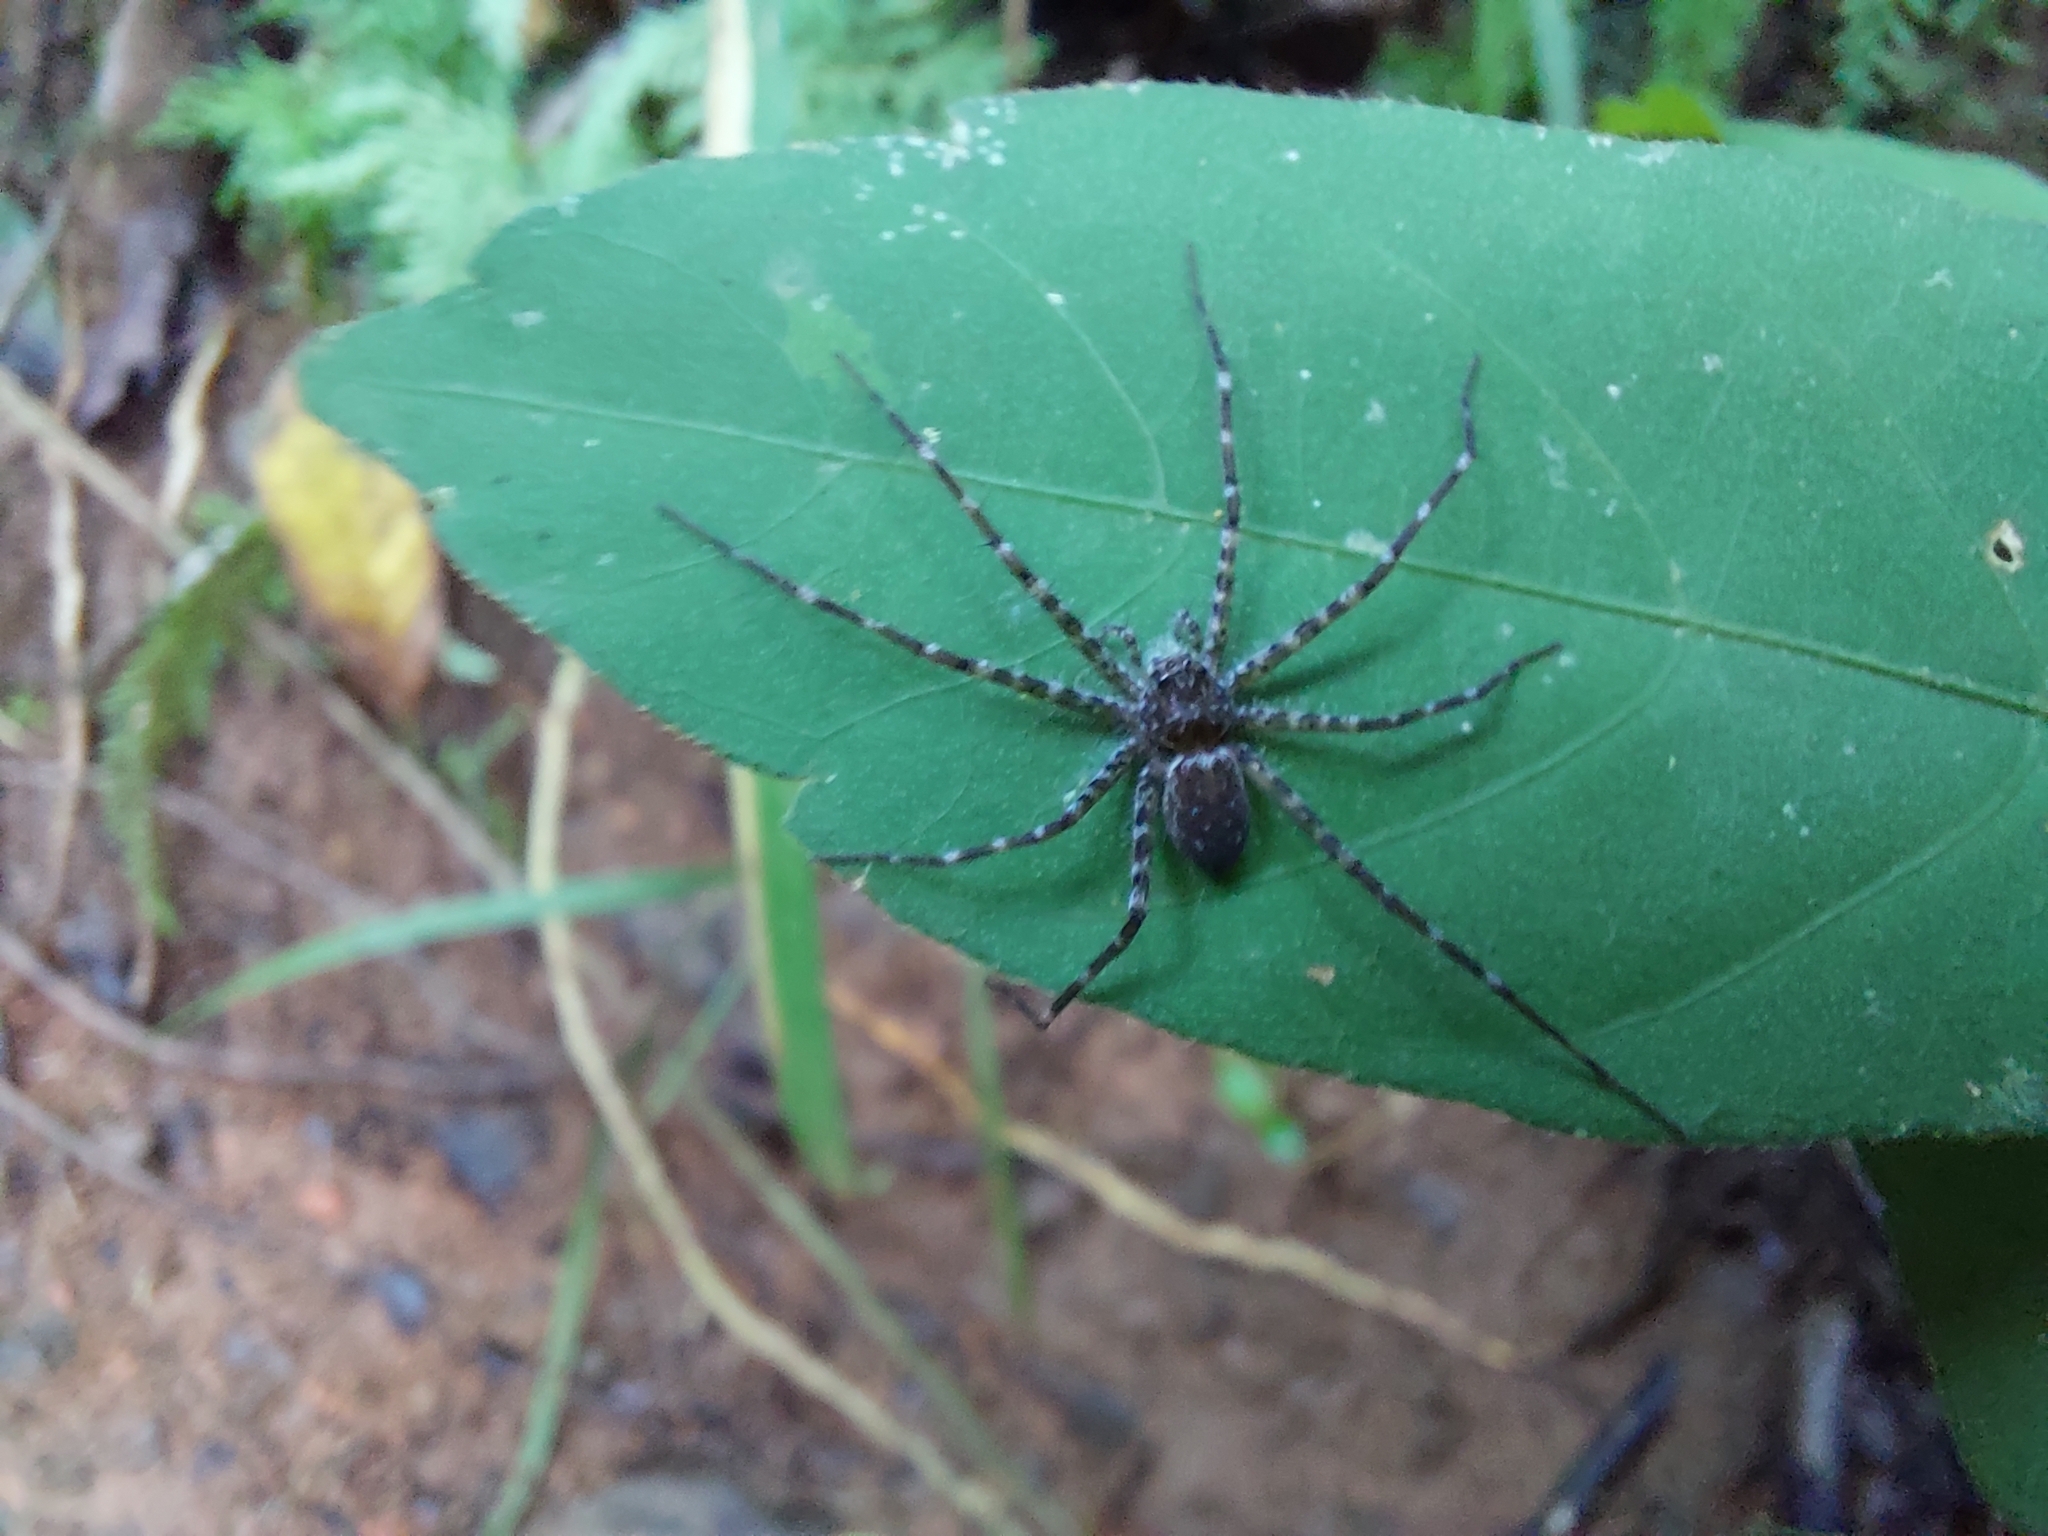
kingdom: Animalia
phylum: Arthropoda
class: Arachnida
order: Araneae
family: Trechaleidae
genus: Trechalea
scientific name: Trechalea extensa
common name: Long legged water spiders
